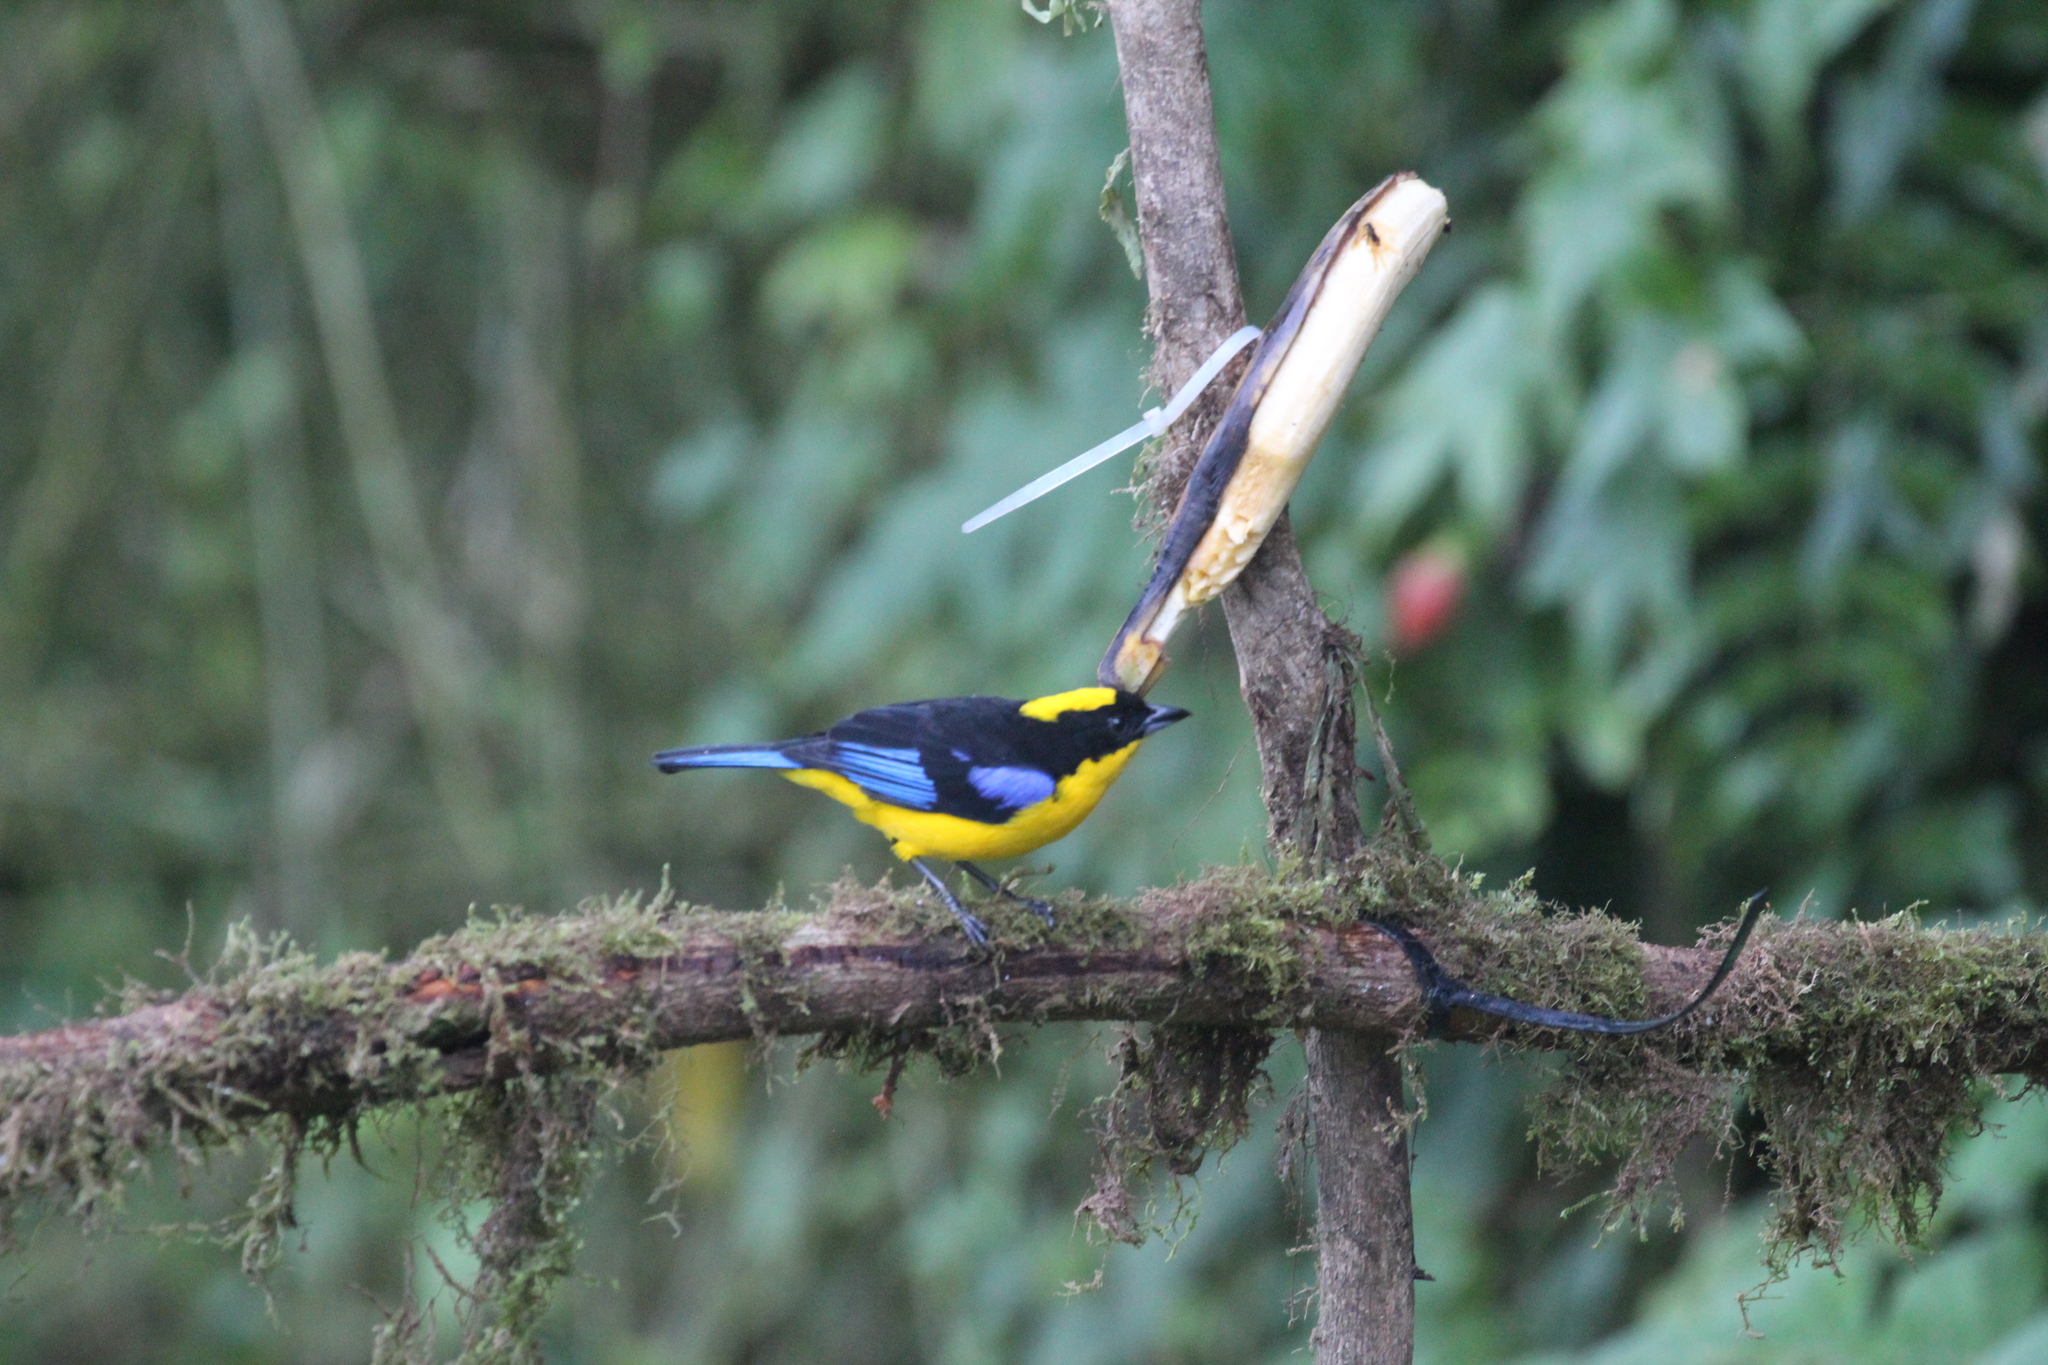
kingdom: Animalia
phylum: Chordata
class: Aves
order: Passeriformes
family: Thraupidae
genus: Anisognathus
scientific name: Anisognathus somptuosus
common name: Blue-winged mountain-tanager
